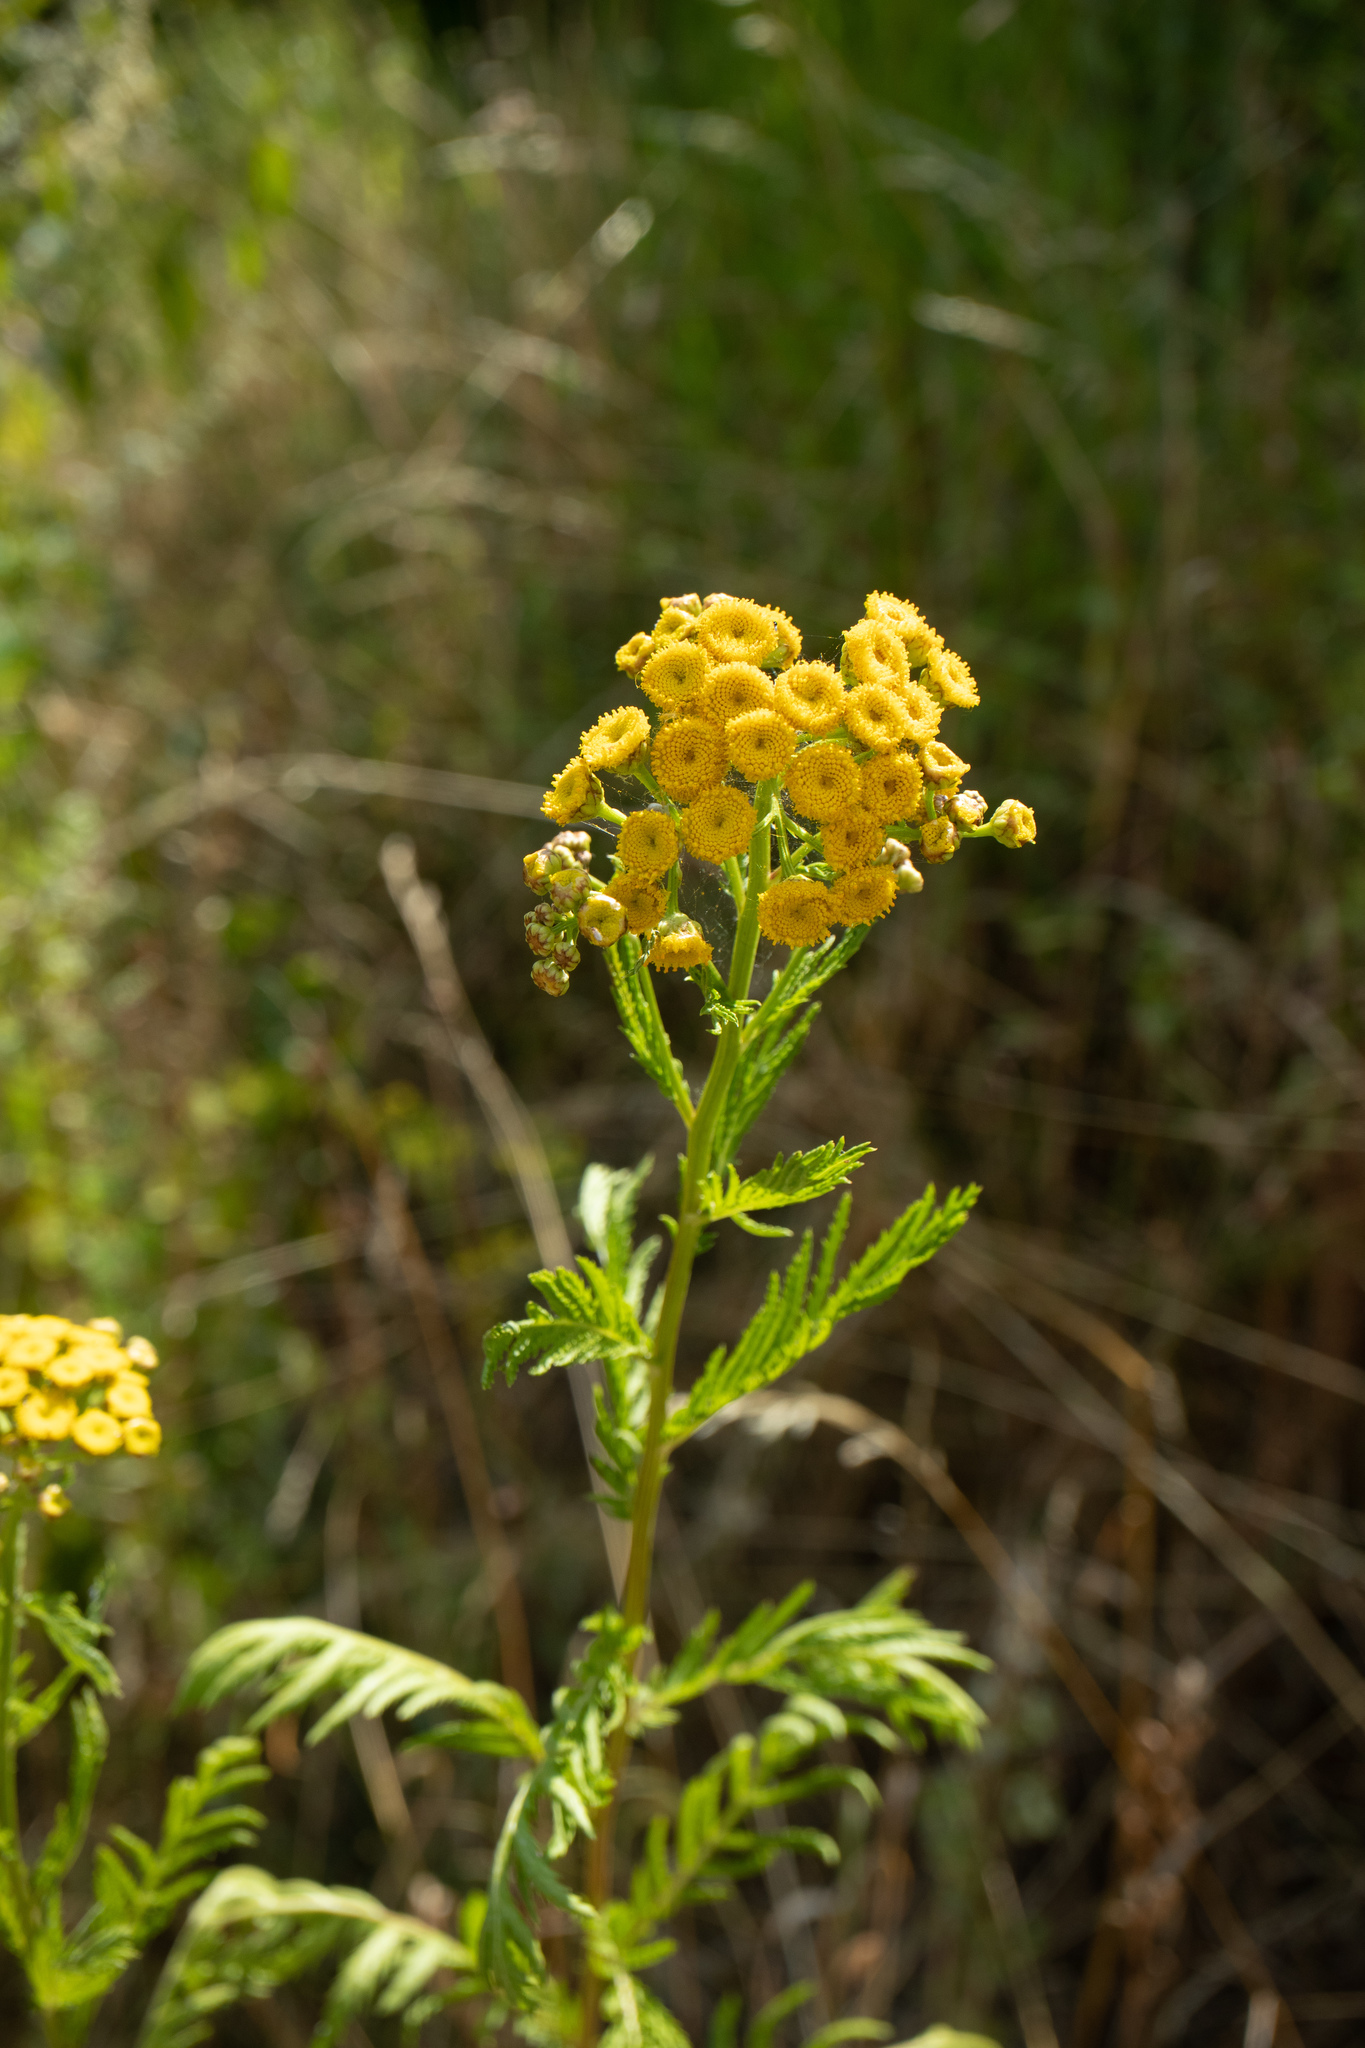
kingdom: Plantae
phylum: Tracheophyta
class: Magnoliopsida
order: Asterales
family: Asteraceae
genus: Tanacetum
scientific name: Tanacetum vulgare
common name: Common tansy
